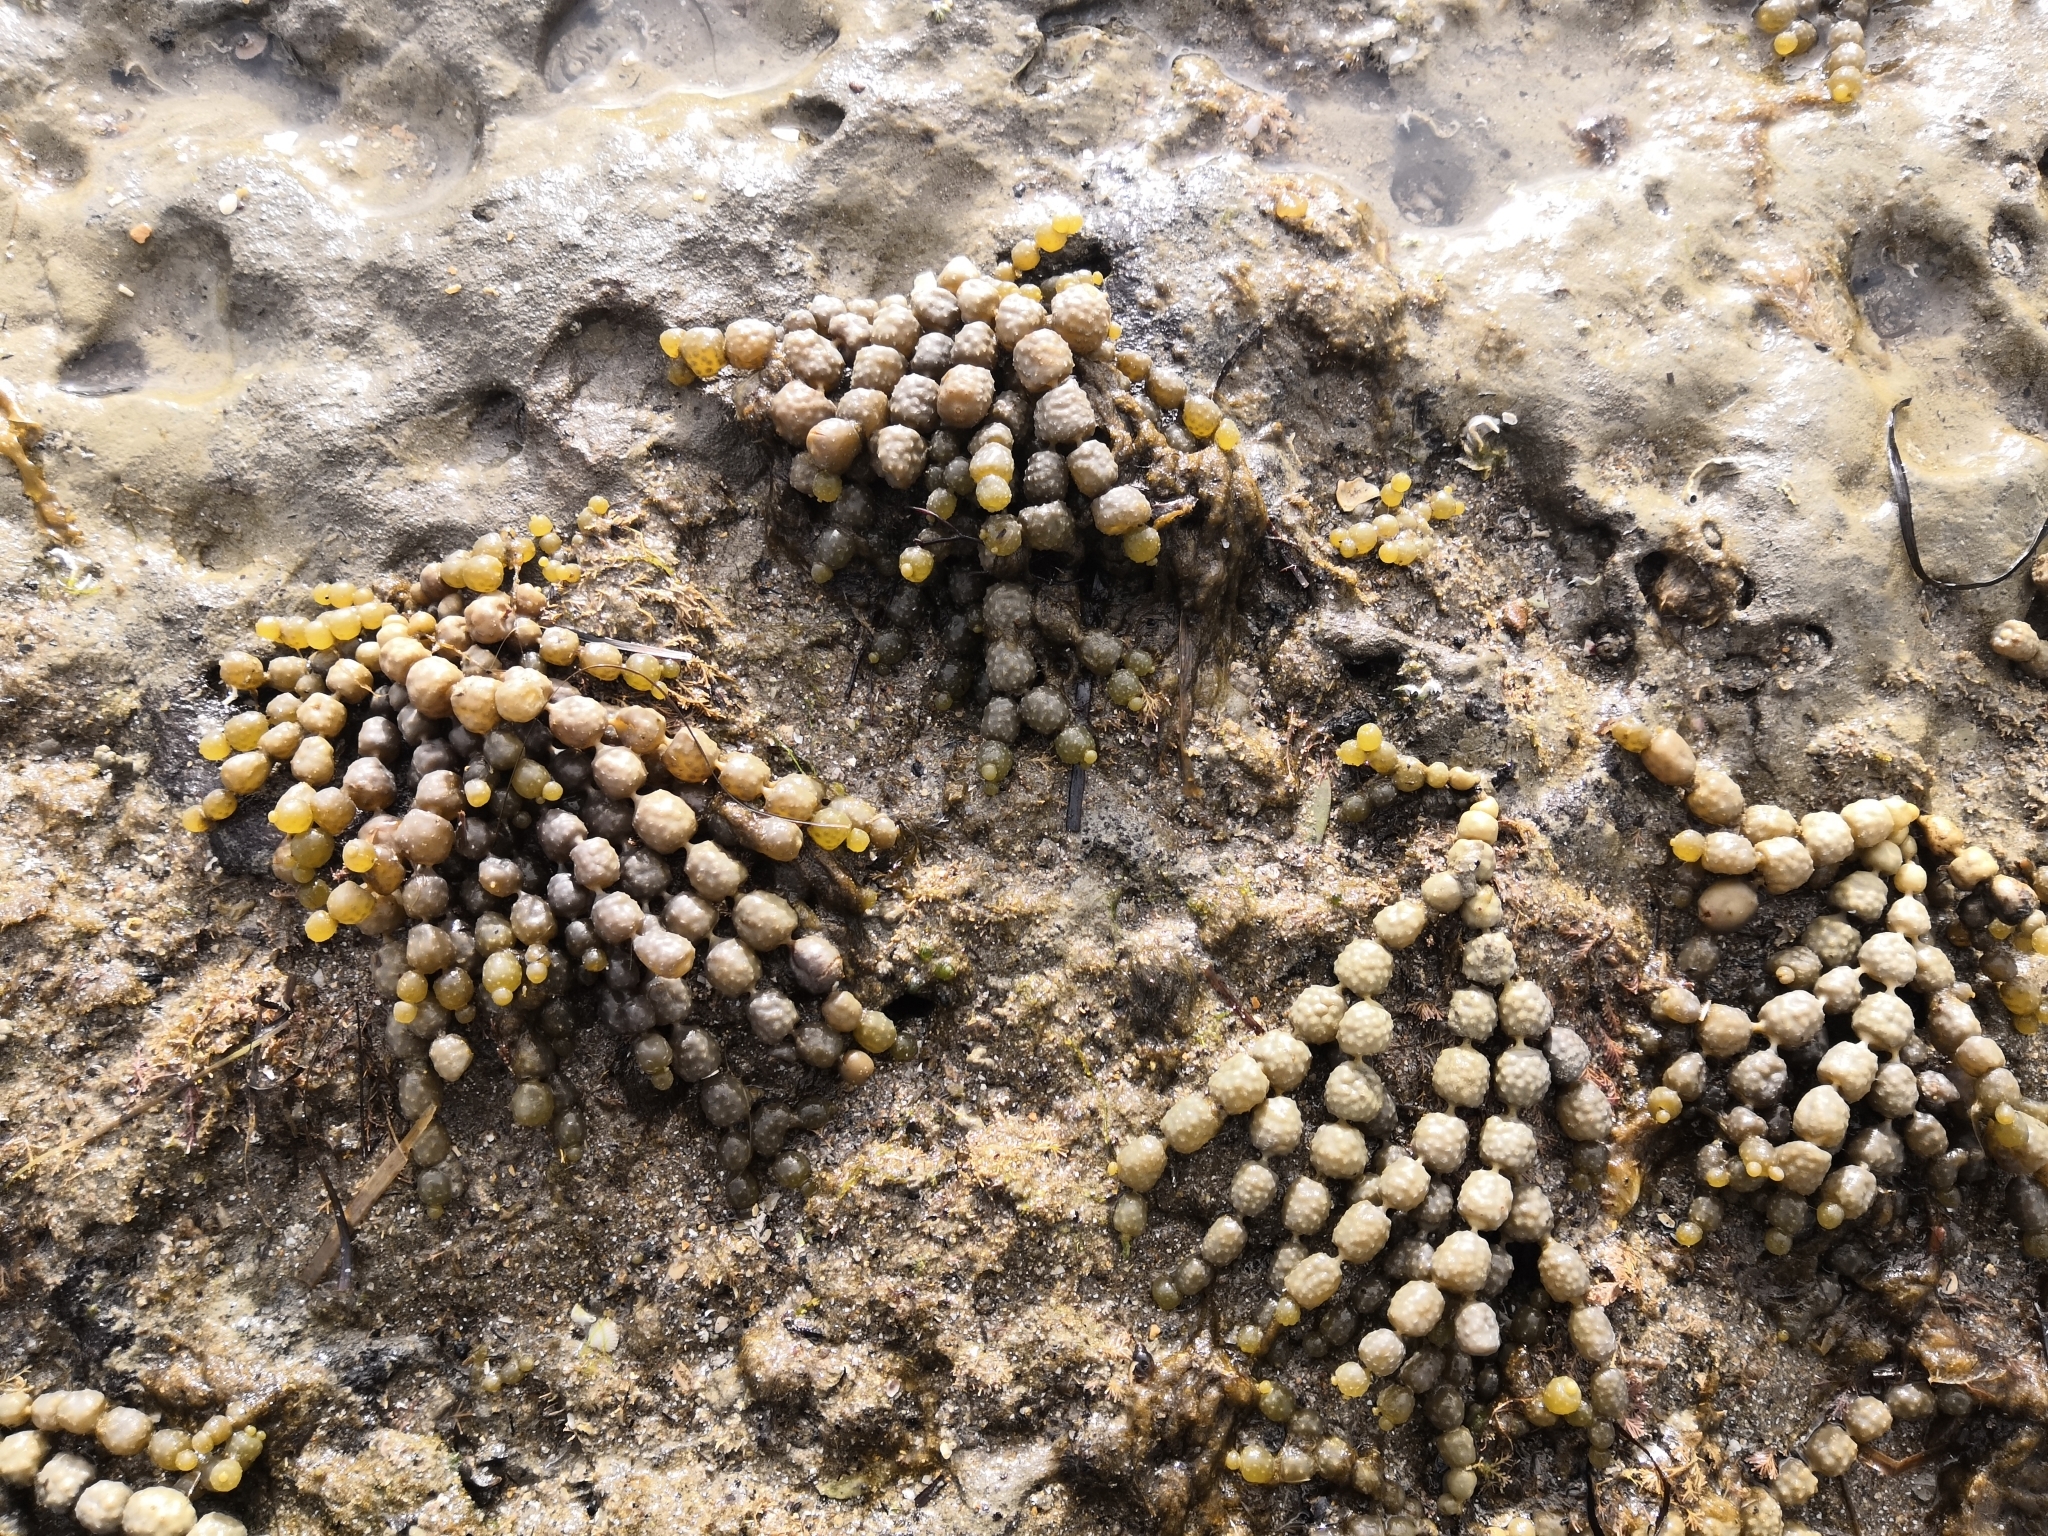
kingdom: Chromista
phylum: Ochrophyta
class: Phaeophyceae
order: Fucales
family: Hormosiraceae
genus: Hormosira
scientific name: Hormosira banksii
